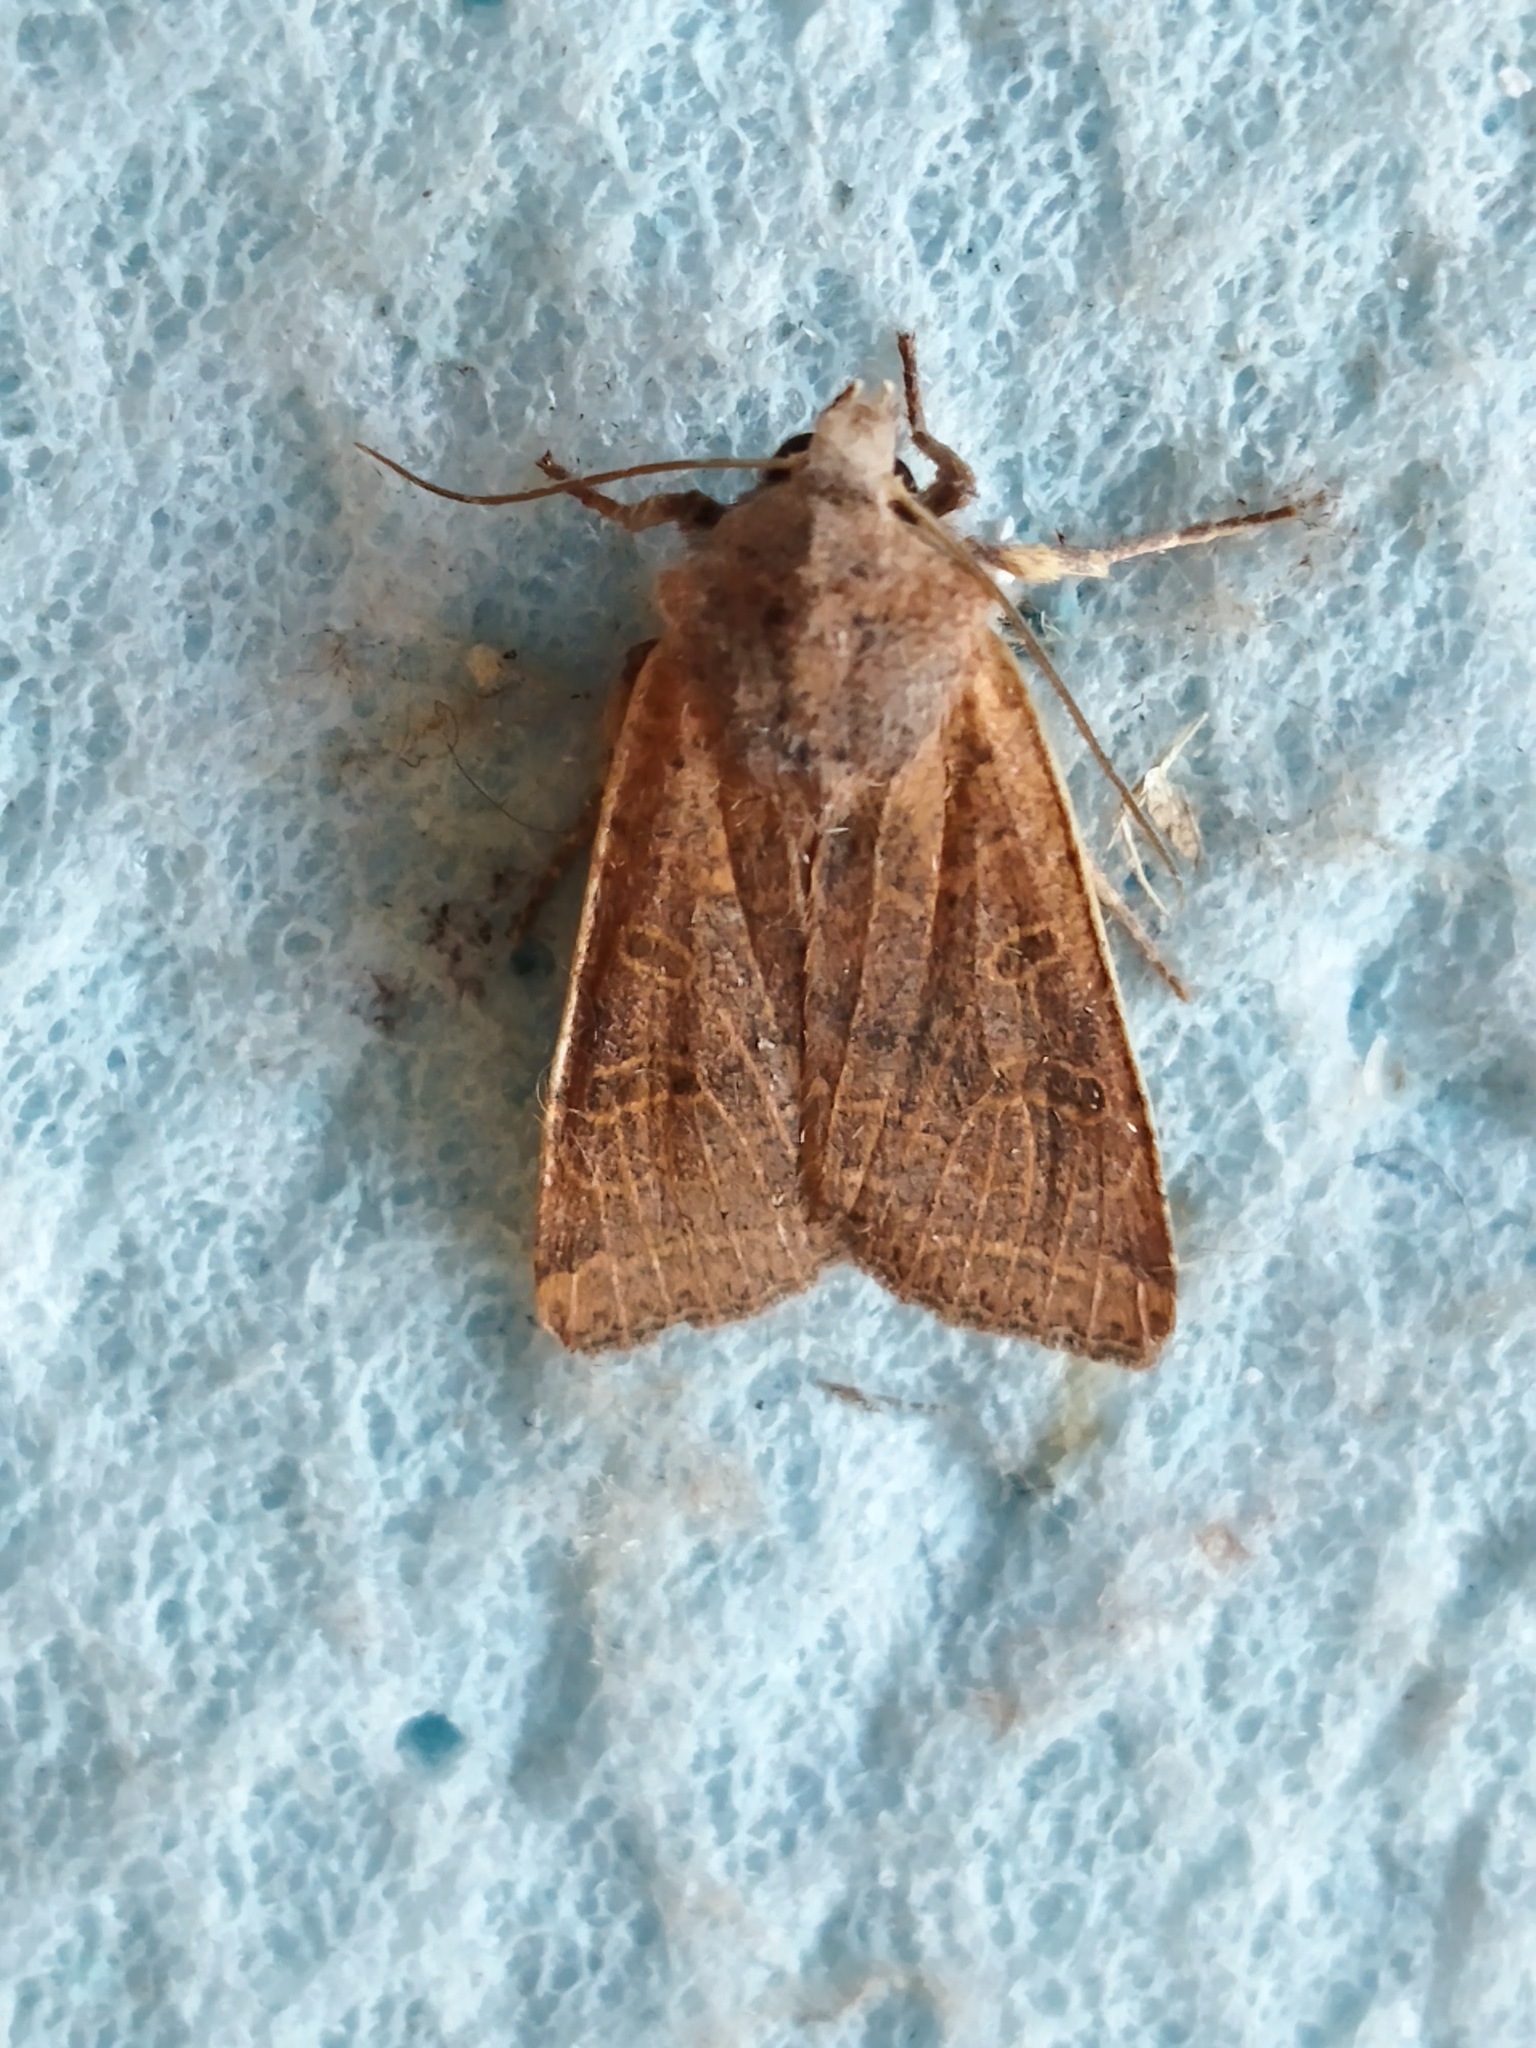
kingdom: Animalia
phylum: Arthropoda
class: Insecta
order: Lepidoptera
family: Noctuidae
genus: Agrochola
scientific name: Agrochola lychnidis
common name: Beaded chestnut
